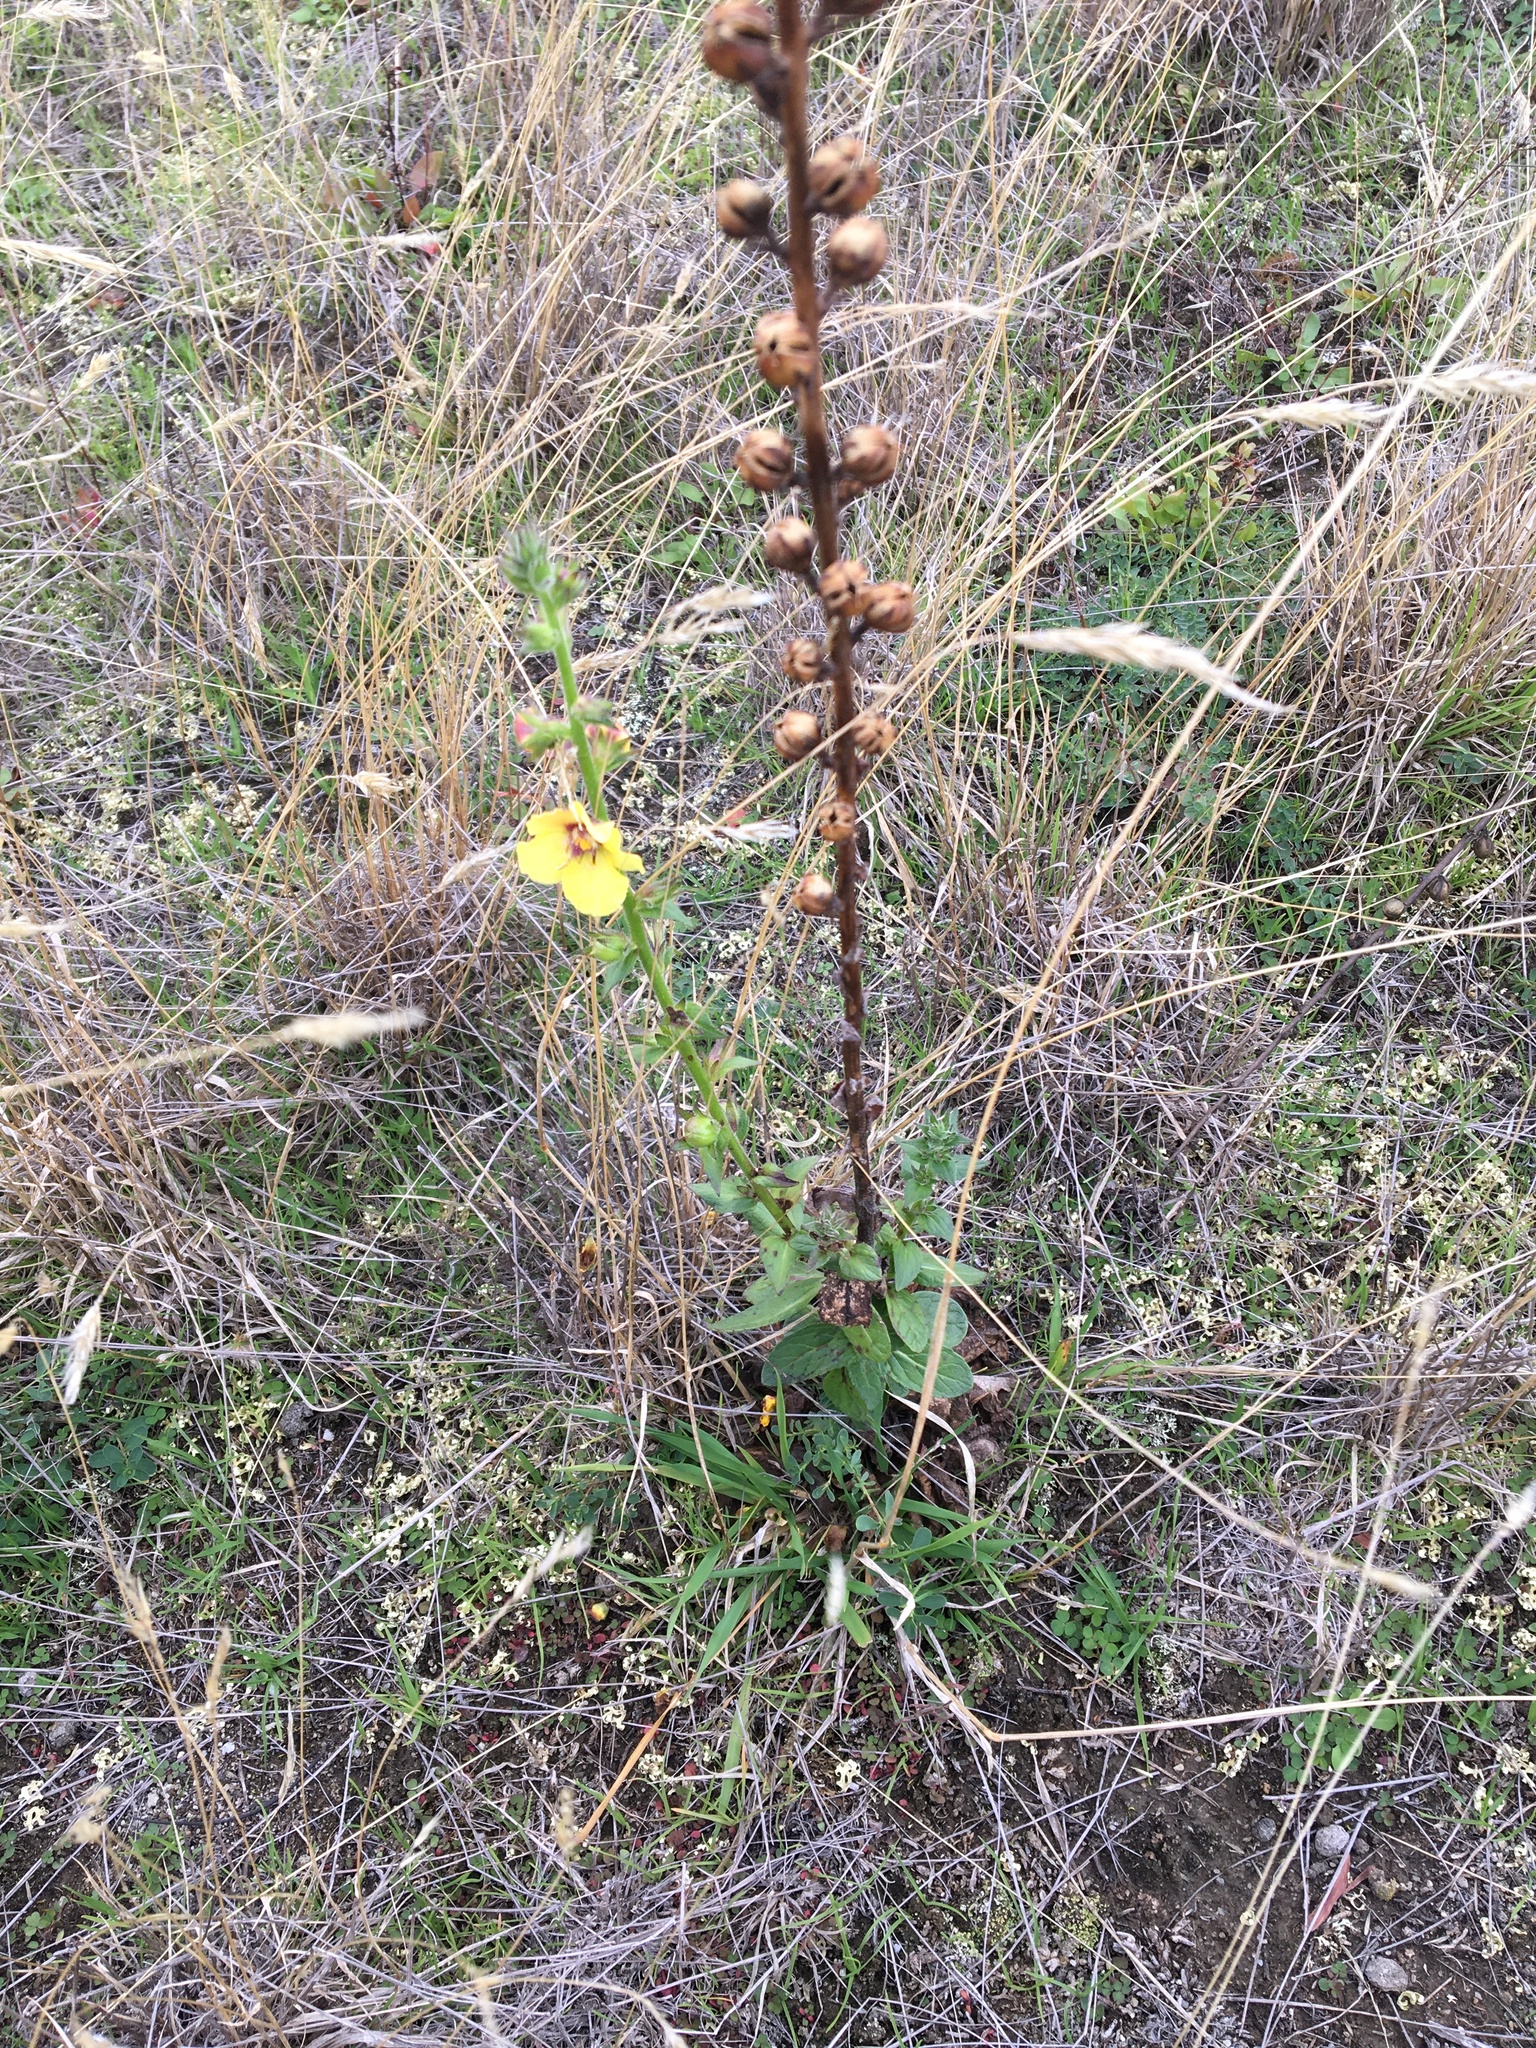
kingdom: Plantae
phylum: Tracheophyta
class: Magnoliopsida
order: Lamiales
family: Scrophulariaceae
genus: Verbascum
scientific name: Verbascum virgatum
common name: Twiggy mullein
